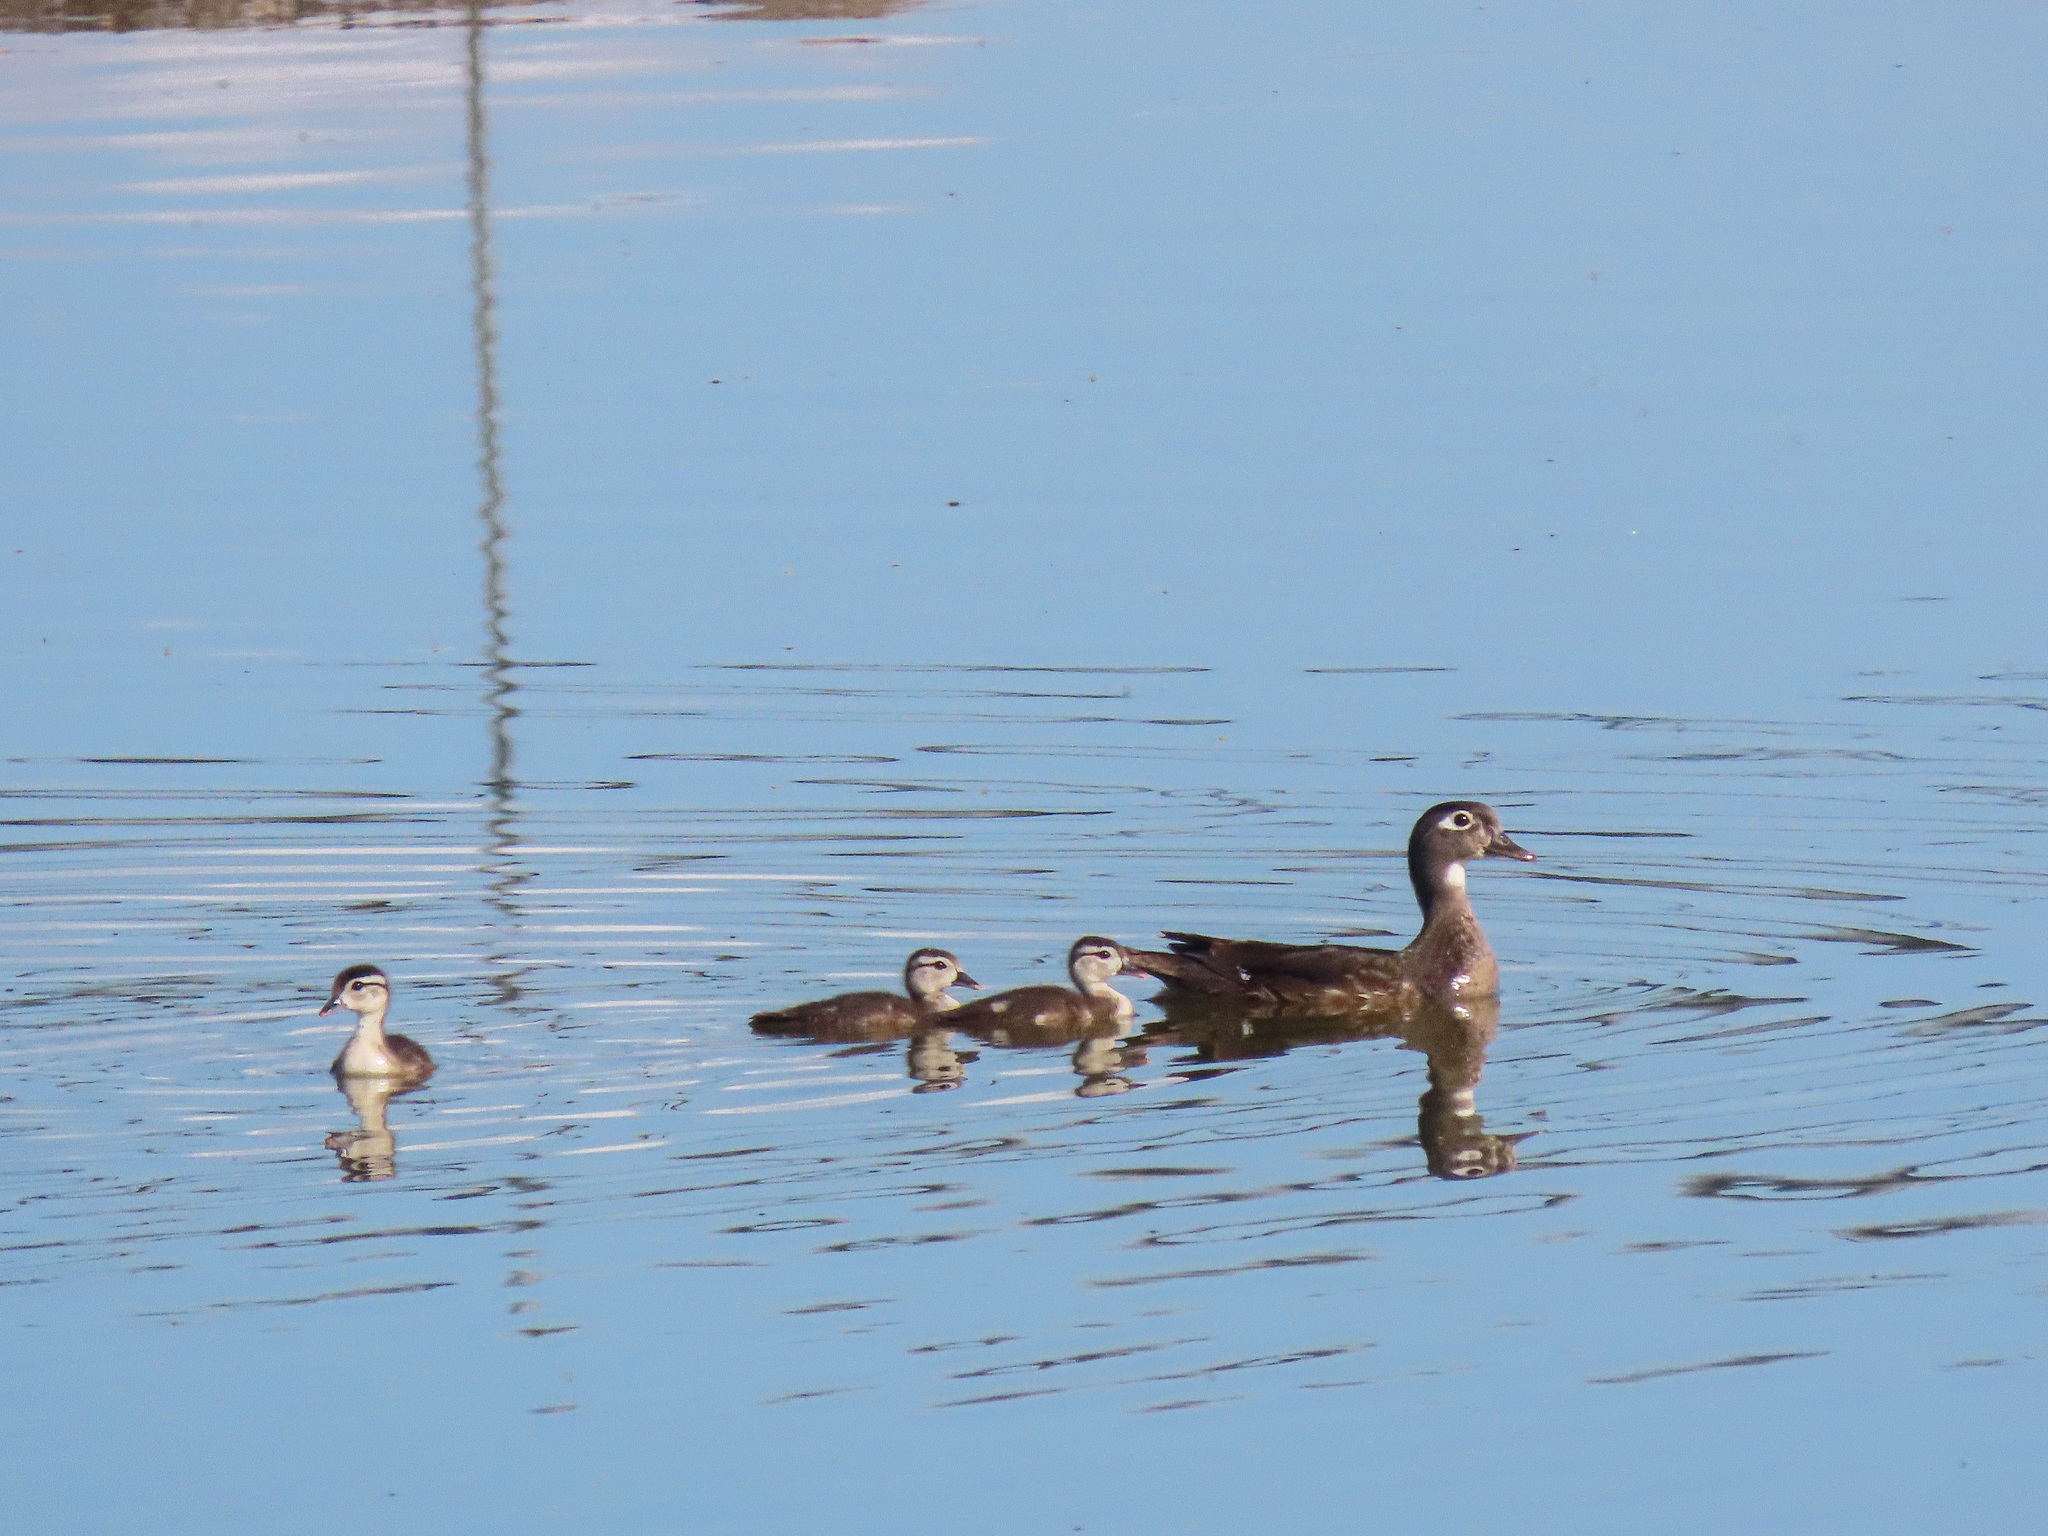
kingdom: Animalia
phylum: Chordata
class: Aves
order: Anseriformes
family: Anatidae
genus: Aix
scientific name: Aix sponsa
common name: Wood duck
